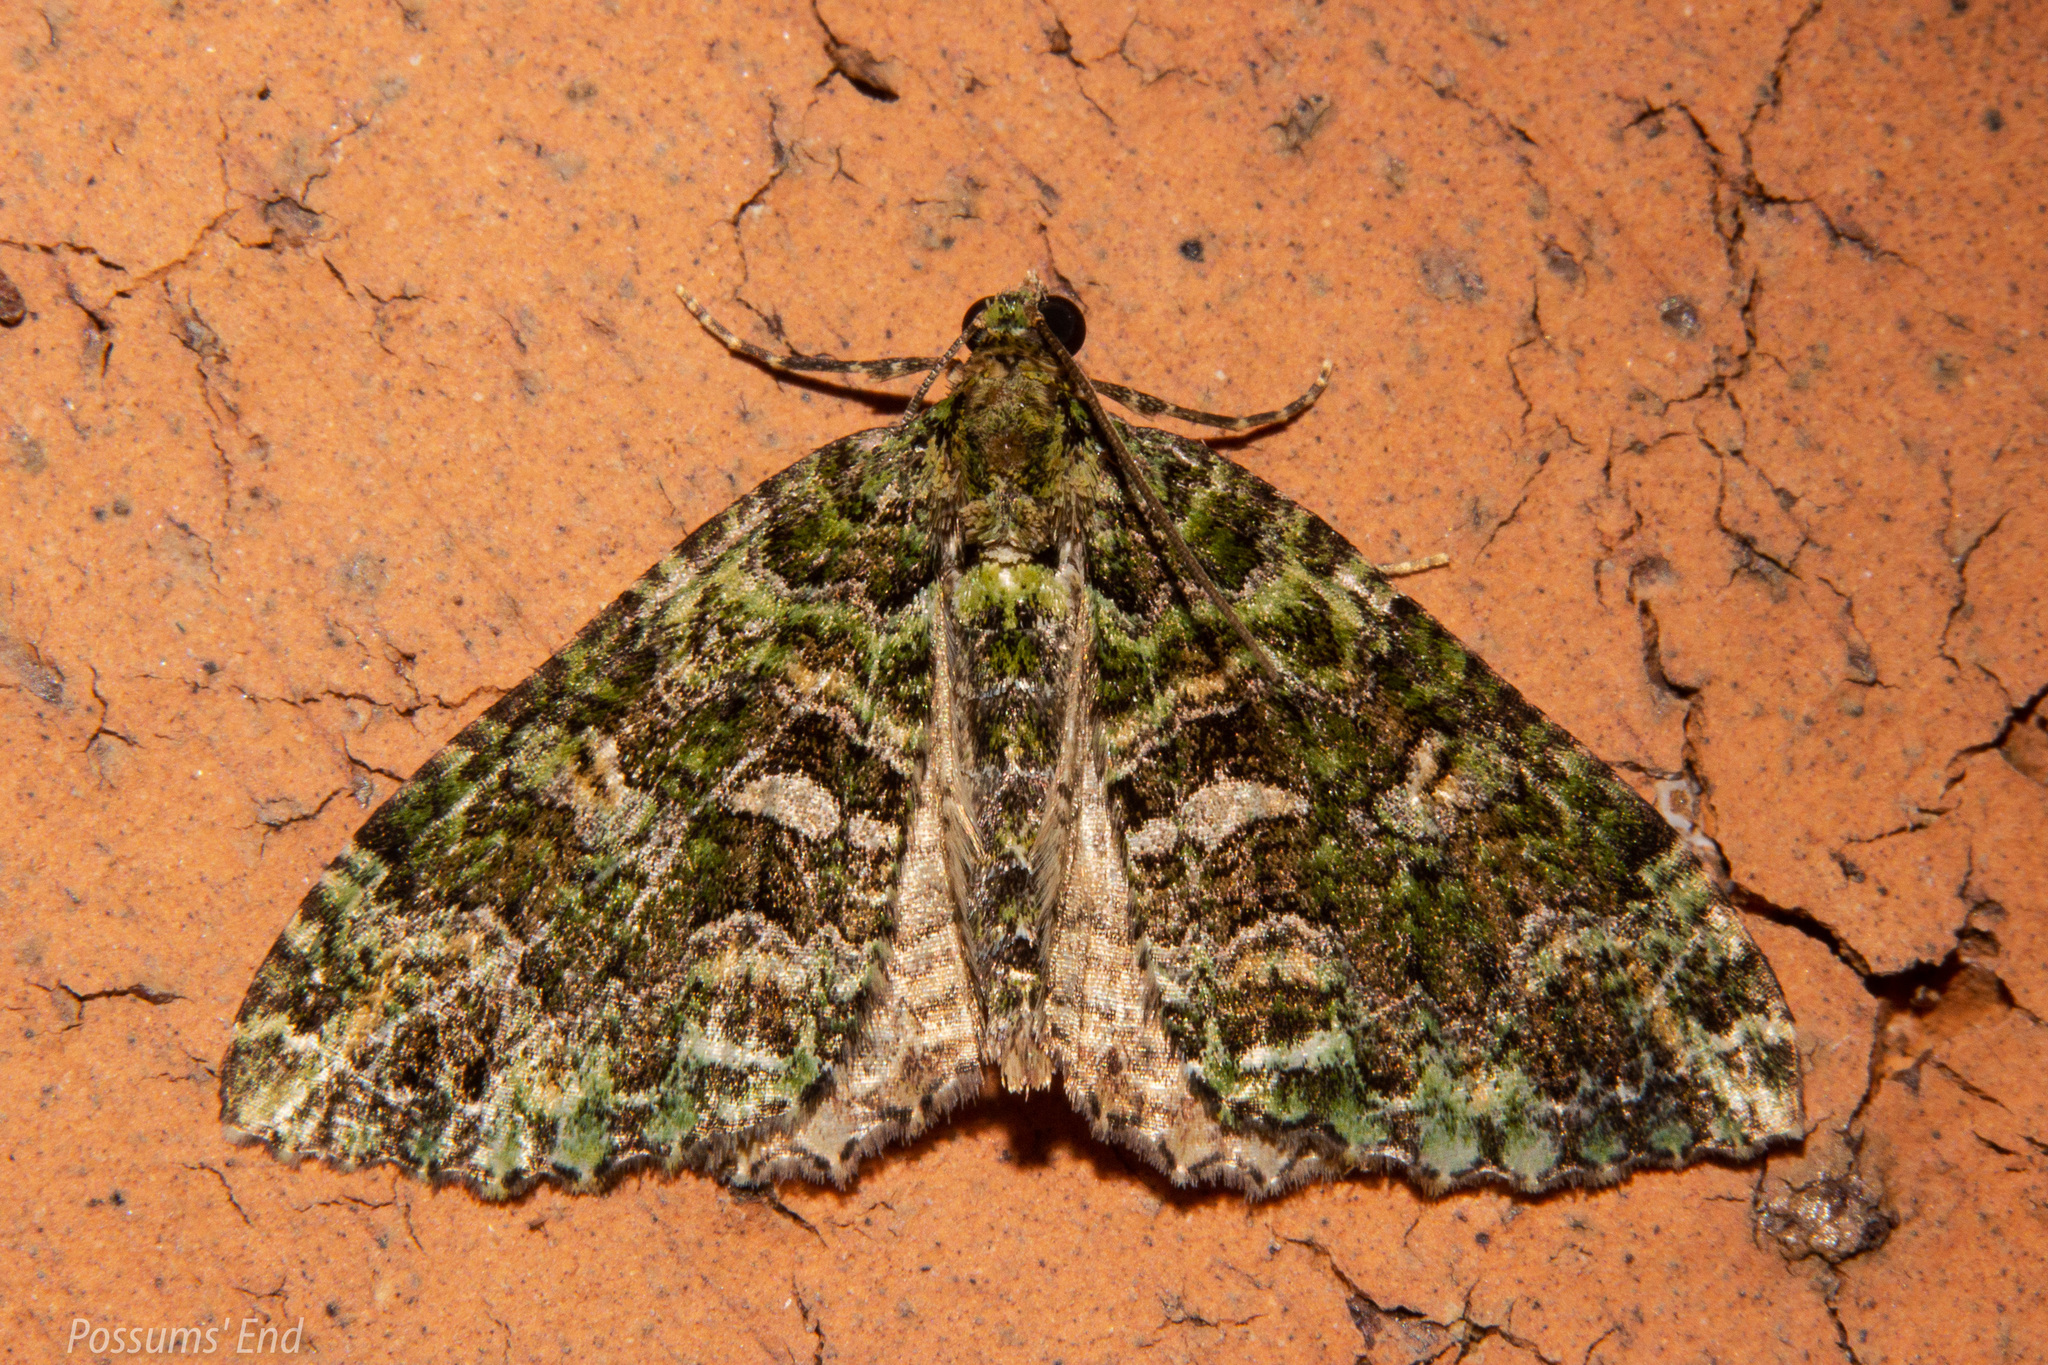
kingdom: Animalia
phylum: Arthropoda
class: Insecta
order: Lepidoptera
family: Geometridae
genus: Austrocidaria
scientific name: Austrocidaria similata
